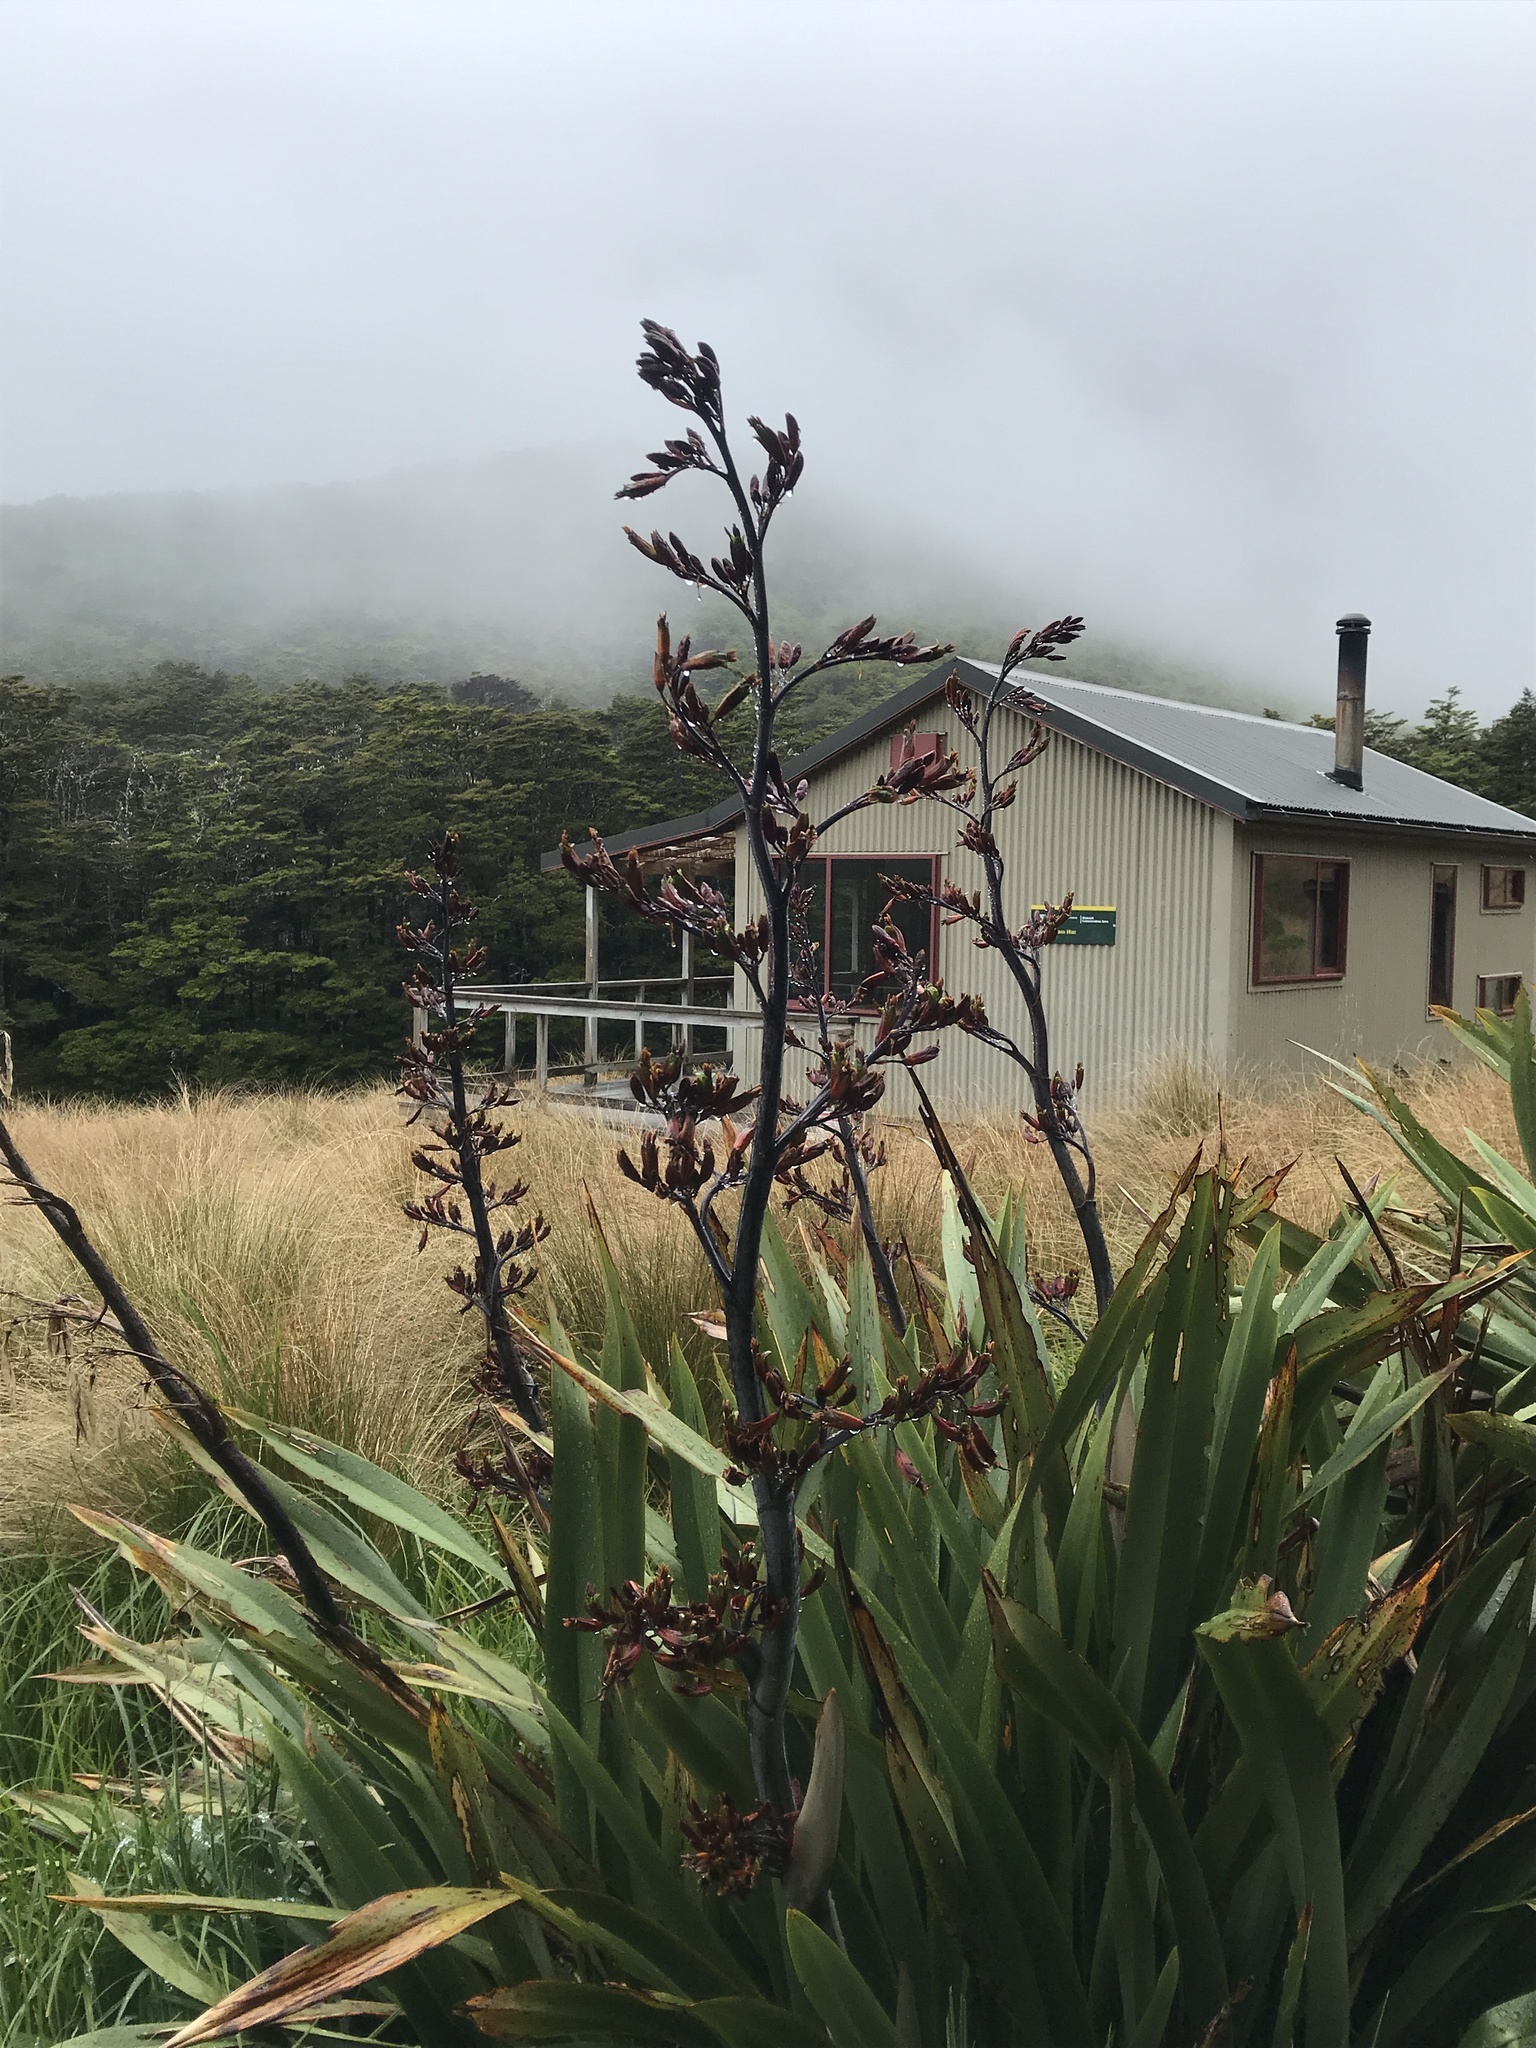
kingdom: Plantae
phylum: Tracheophyta
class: Liliopsida
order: Asparagales
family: Asphodelaceae
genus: Phormium
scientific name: Phormium tenax
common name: New zealand flax
